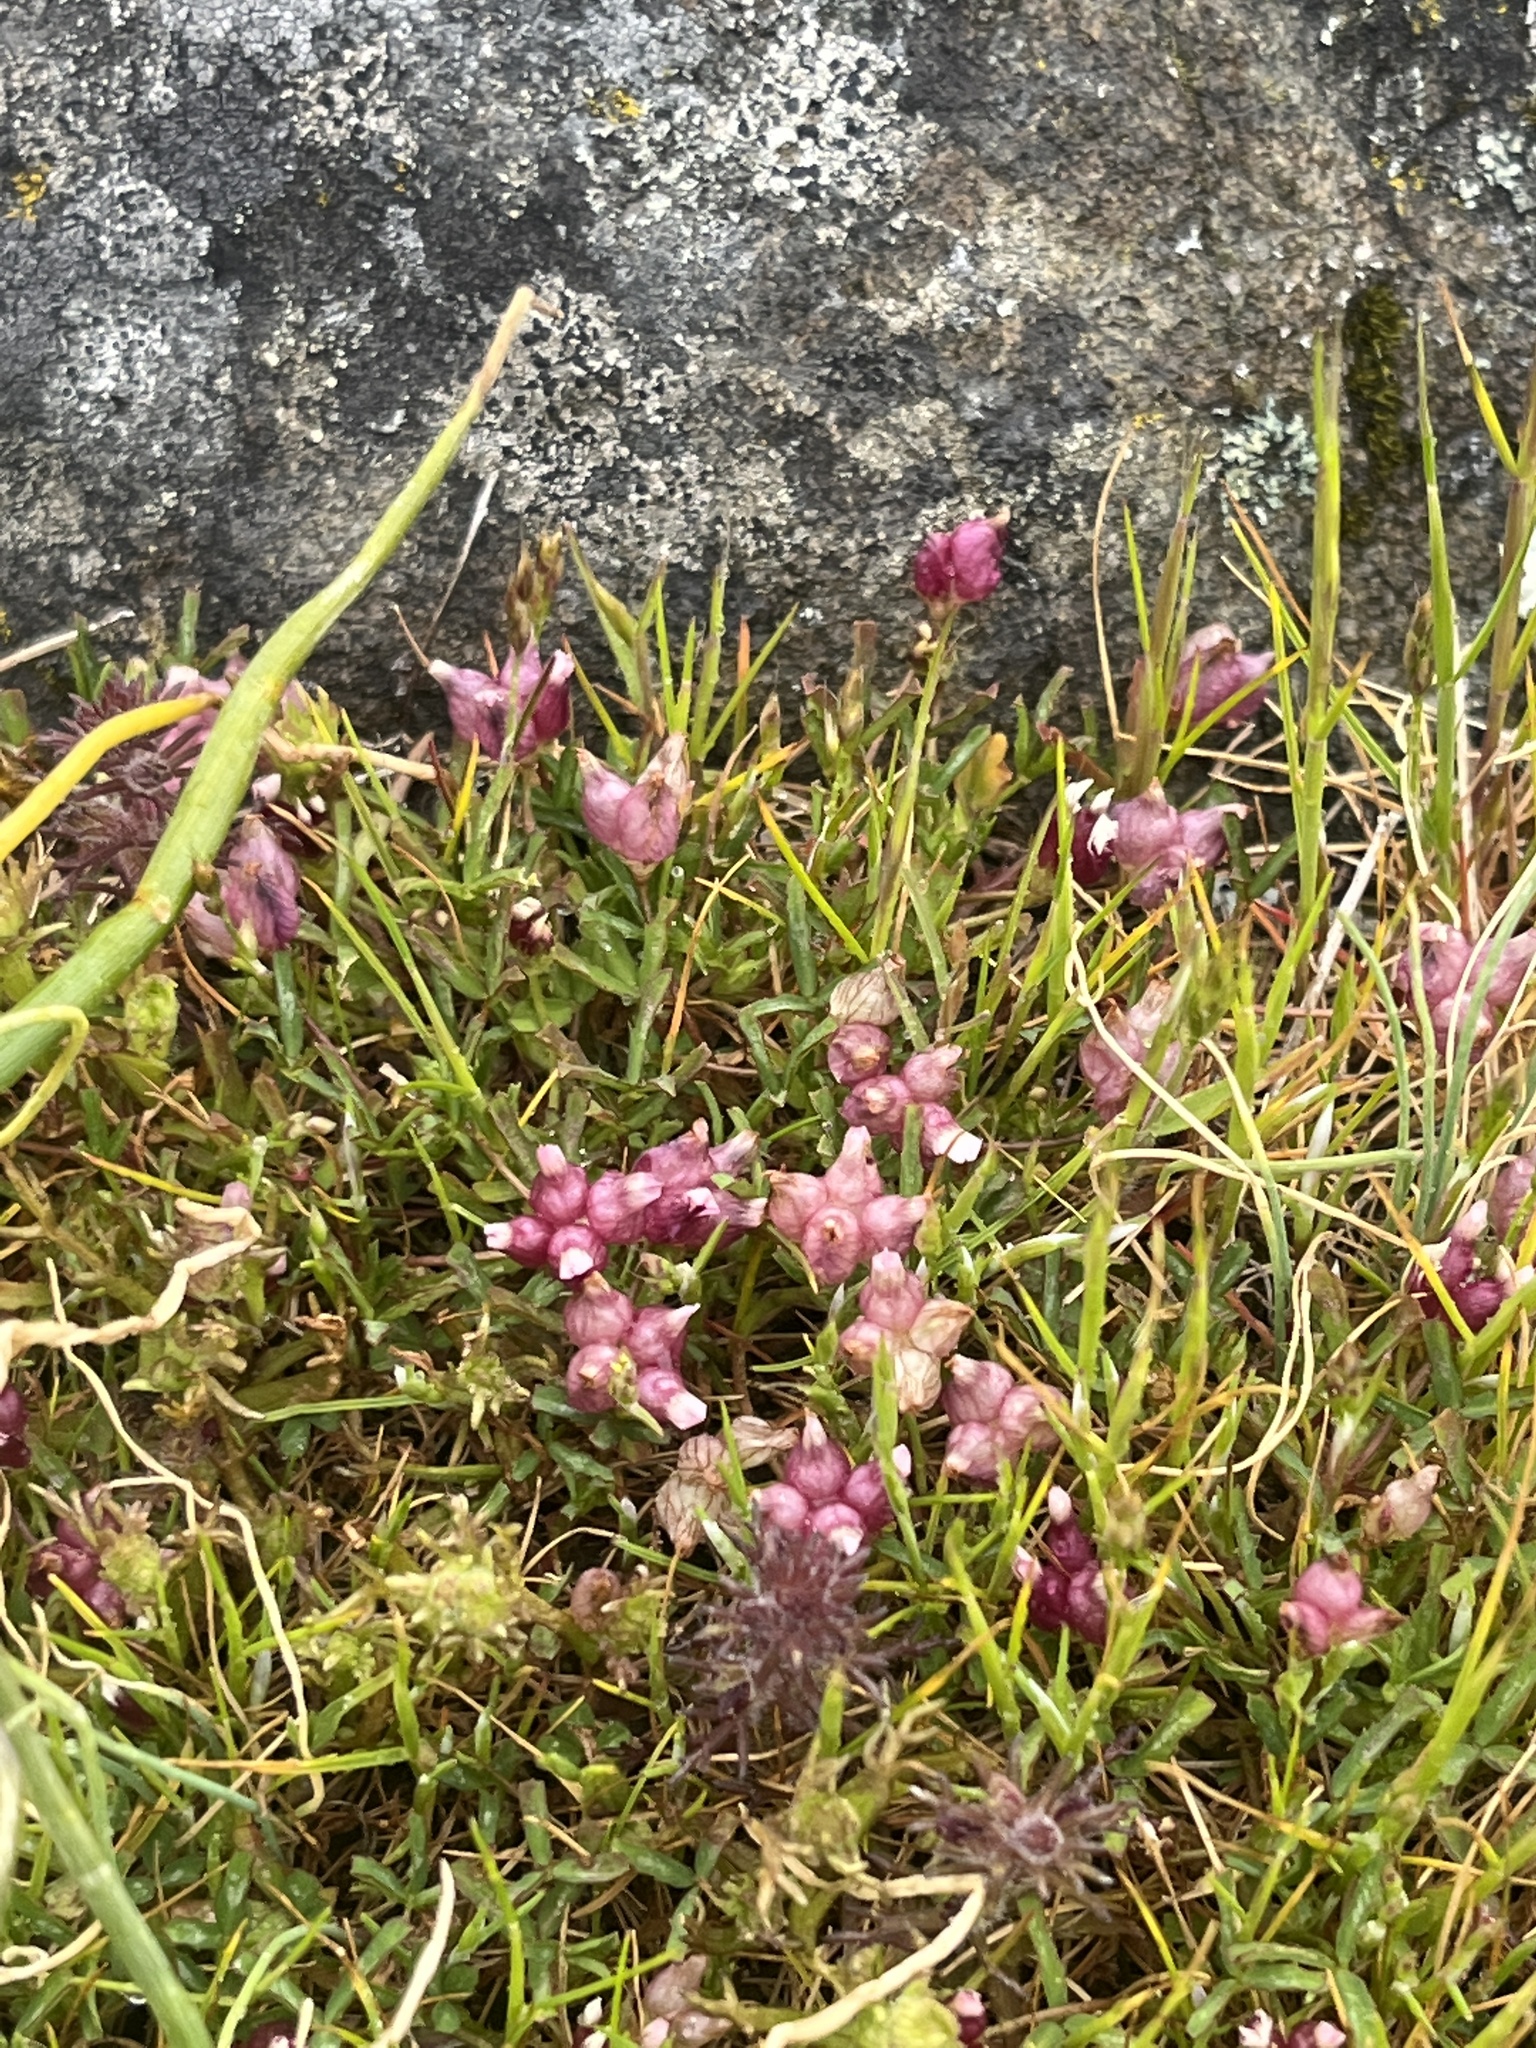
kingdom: Plantae
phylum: Tracheophyta
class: Magnoliopsida
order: Fabales
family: Fabaceae
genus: Trifolium
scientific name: Trifolium depauperatum
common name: Poverty clover
